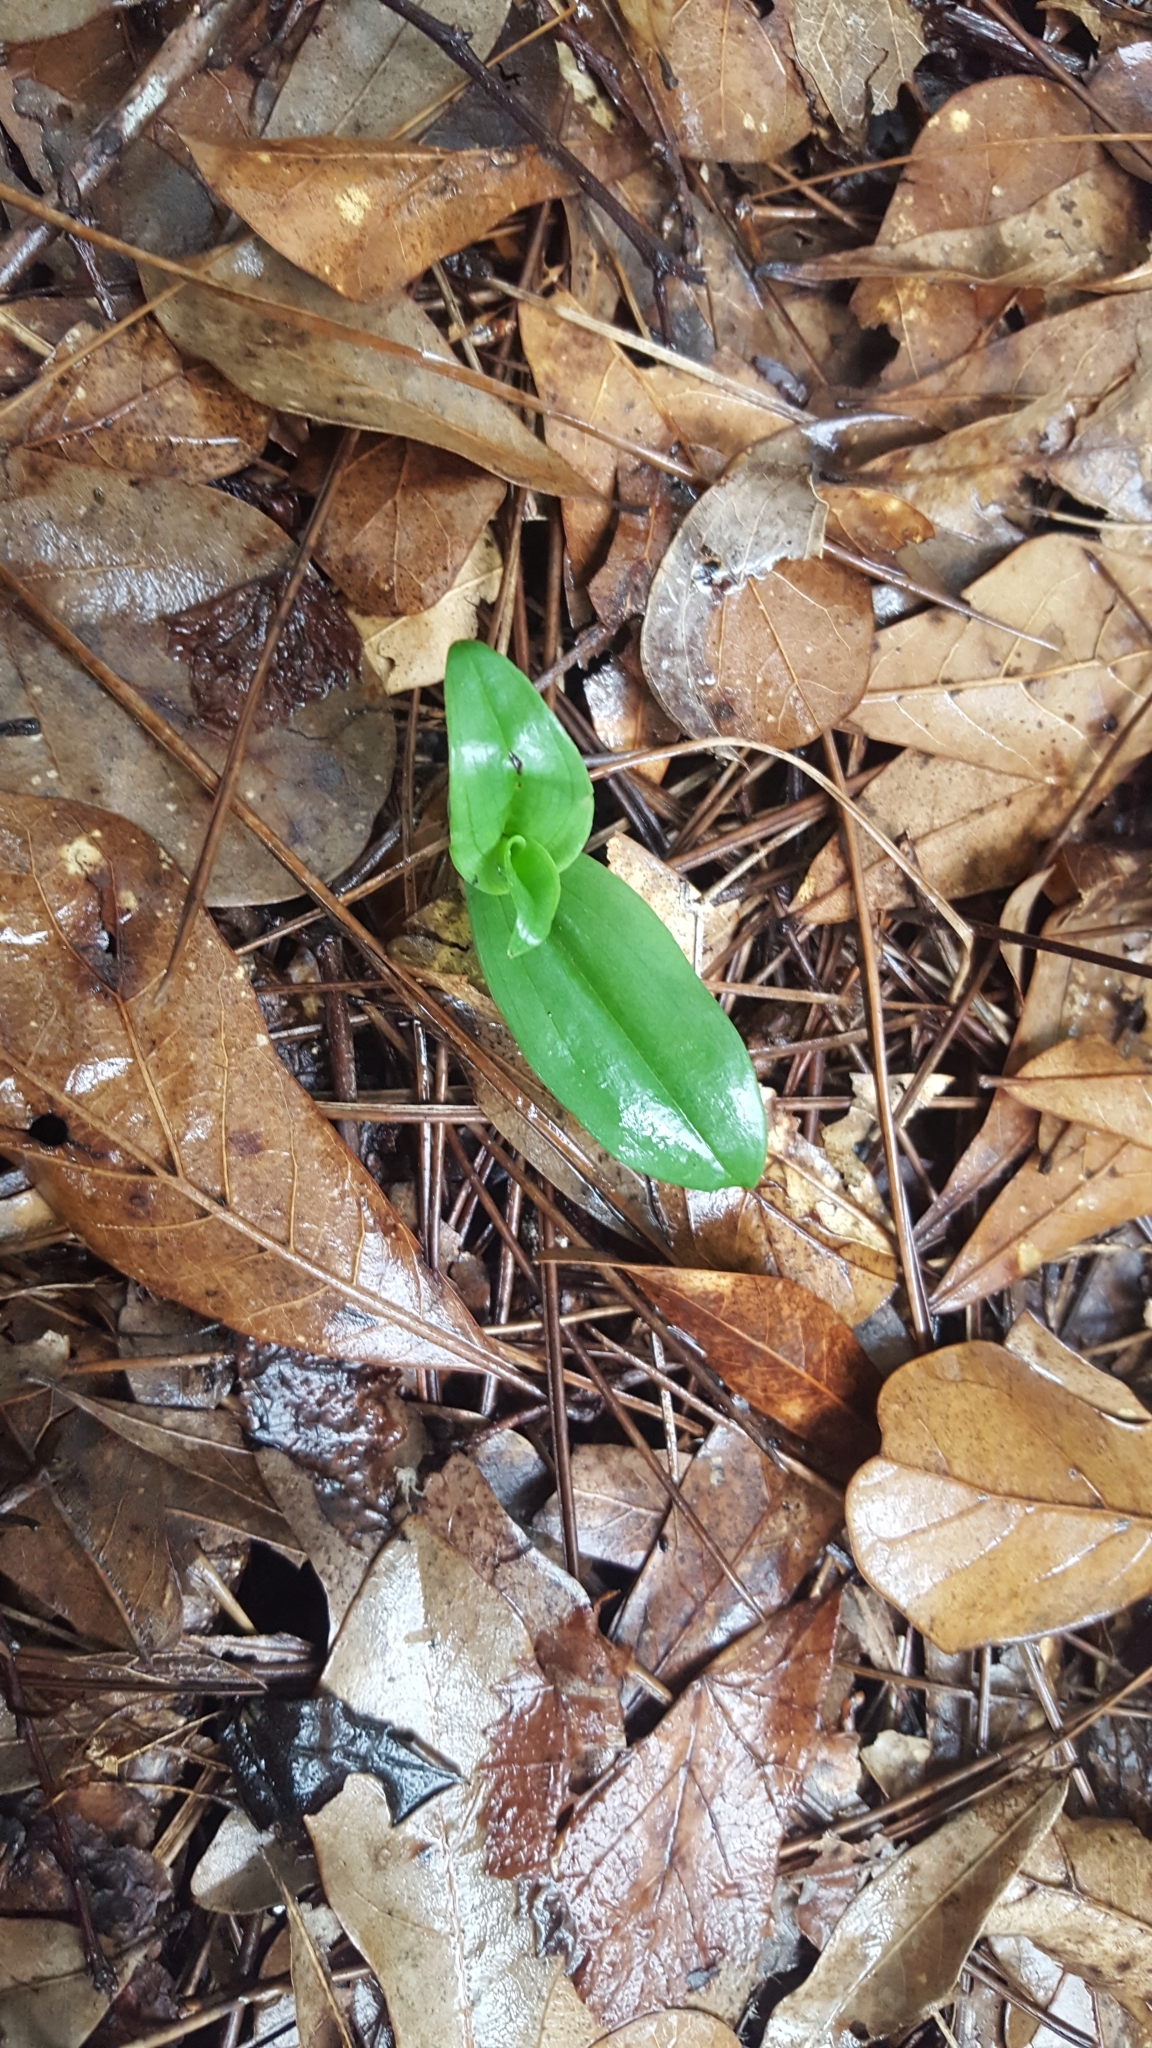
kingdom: Plantae
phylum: Tracheophyta
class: Liliopsida
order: Asparagales
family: Orchidaceae
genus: Habenaria
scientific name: Habenaria floribunda
